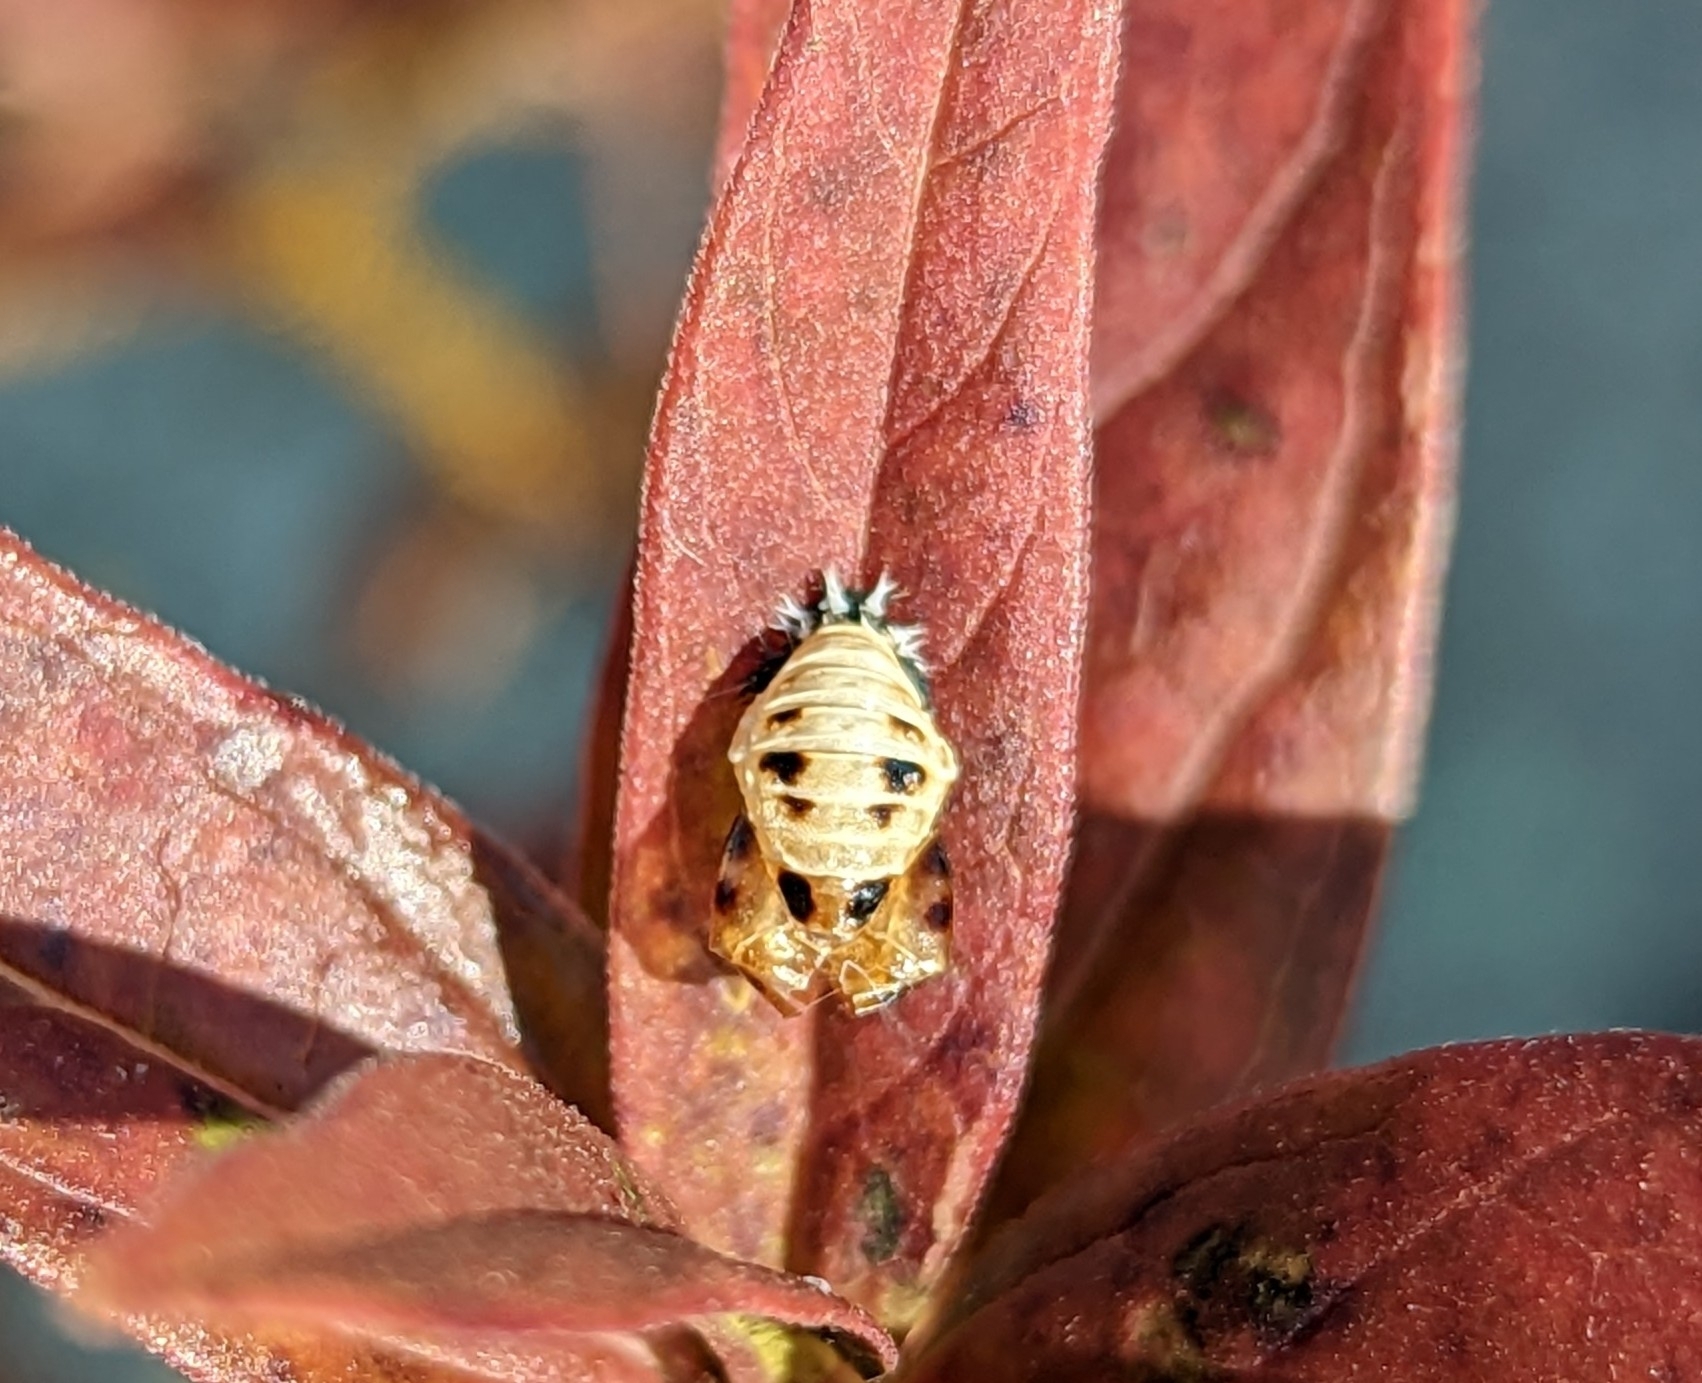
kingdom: Animalia
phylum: Arthropoda
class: Insecta
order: Coleoptera
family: Coccinellidae
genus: Harmonia
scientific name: Harmonia axyridis
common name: Harlequin ladybird
